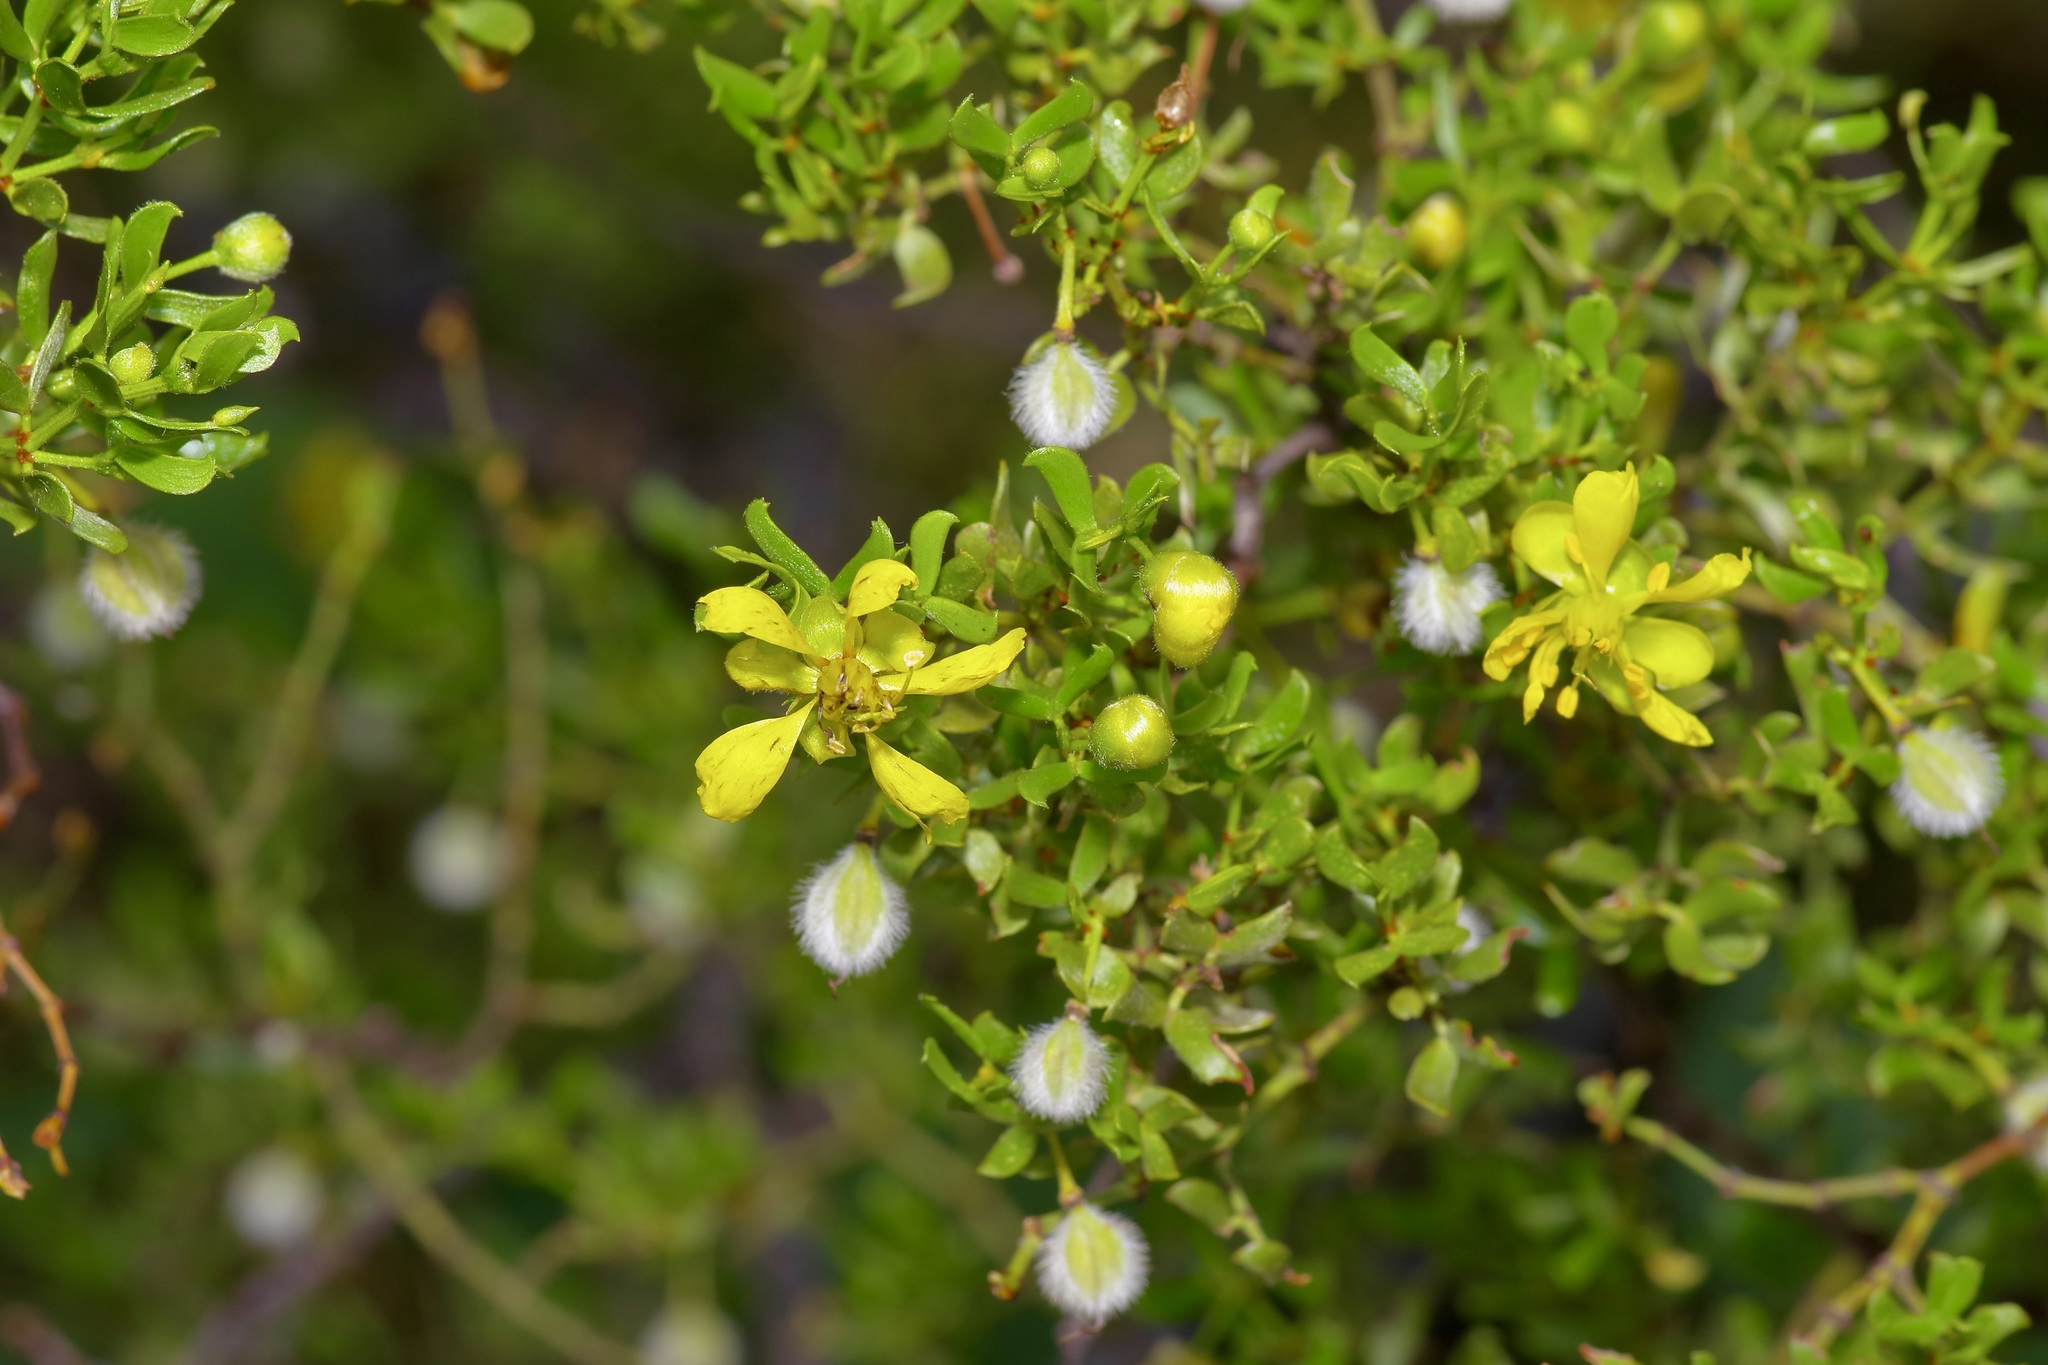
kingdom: Plantae
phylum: Tracheophyta
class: Magnoliopsida
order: Zygophyllales
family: Zygophyllaceae
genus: Larrea
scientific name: Larrea tridentata
